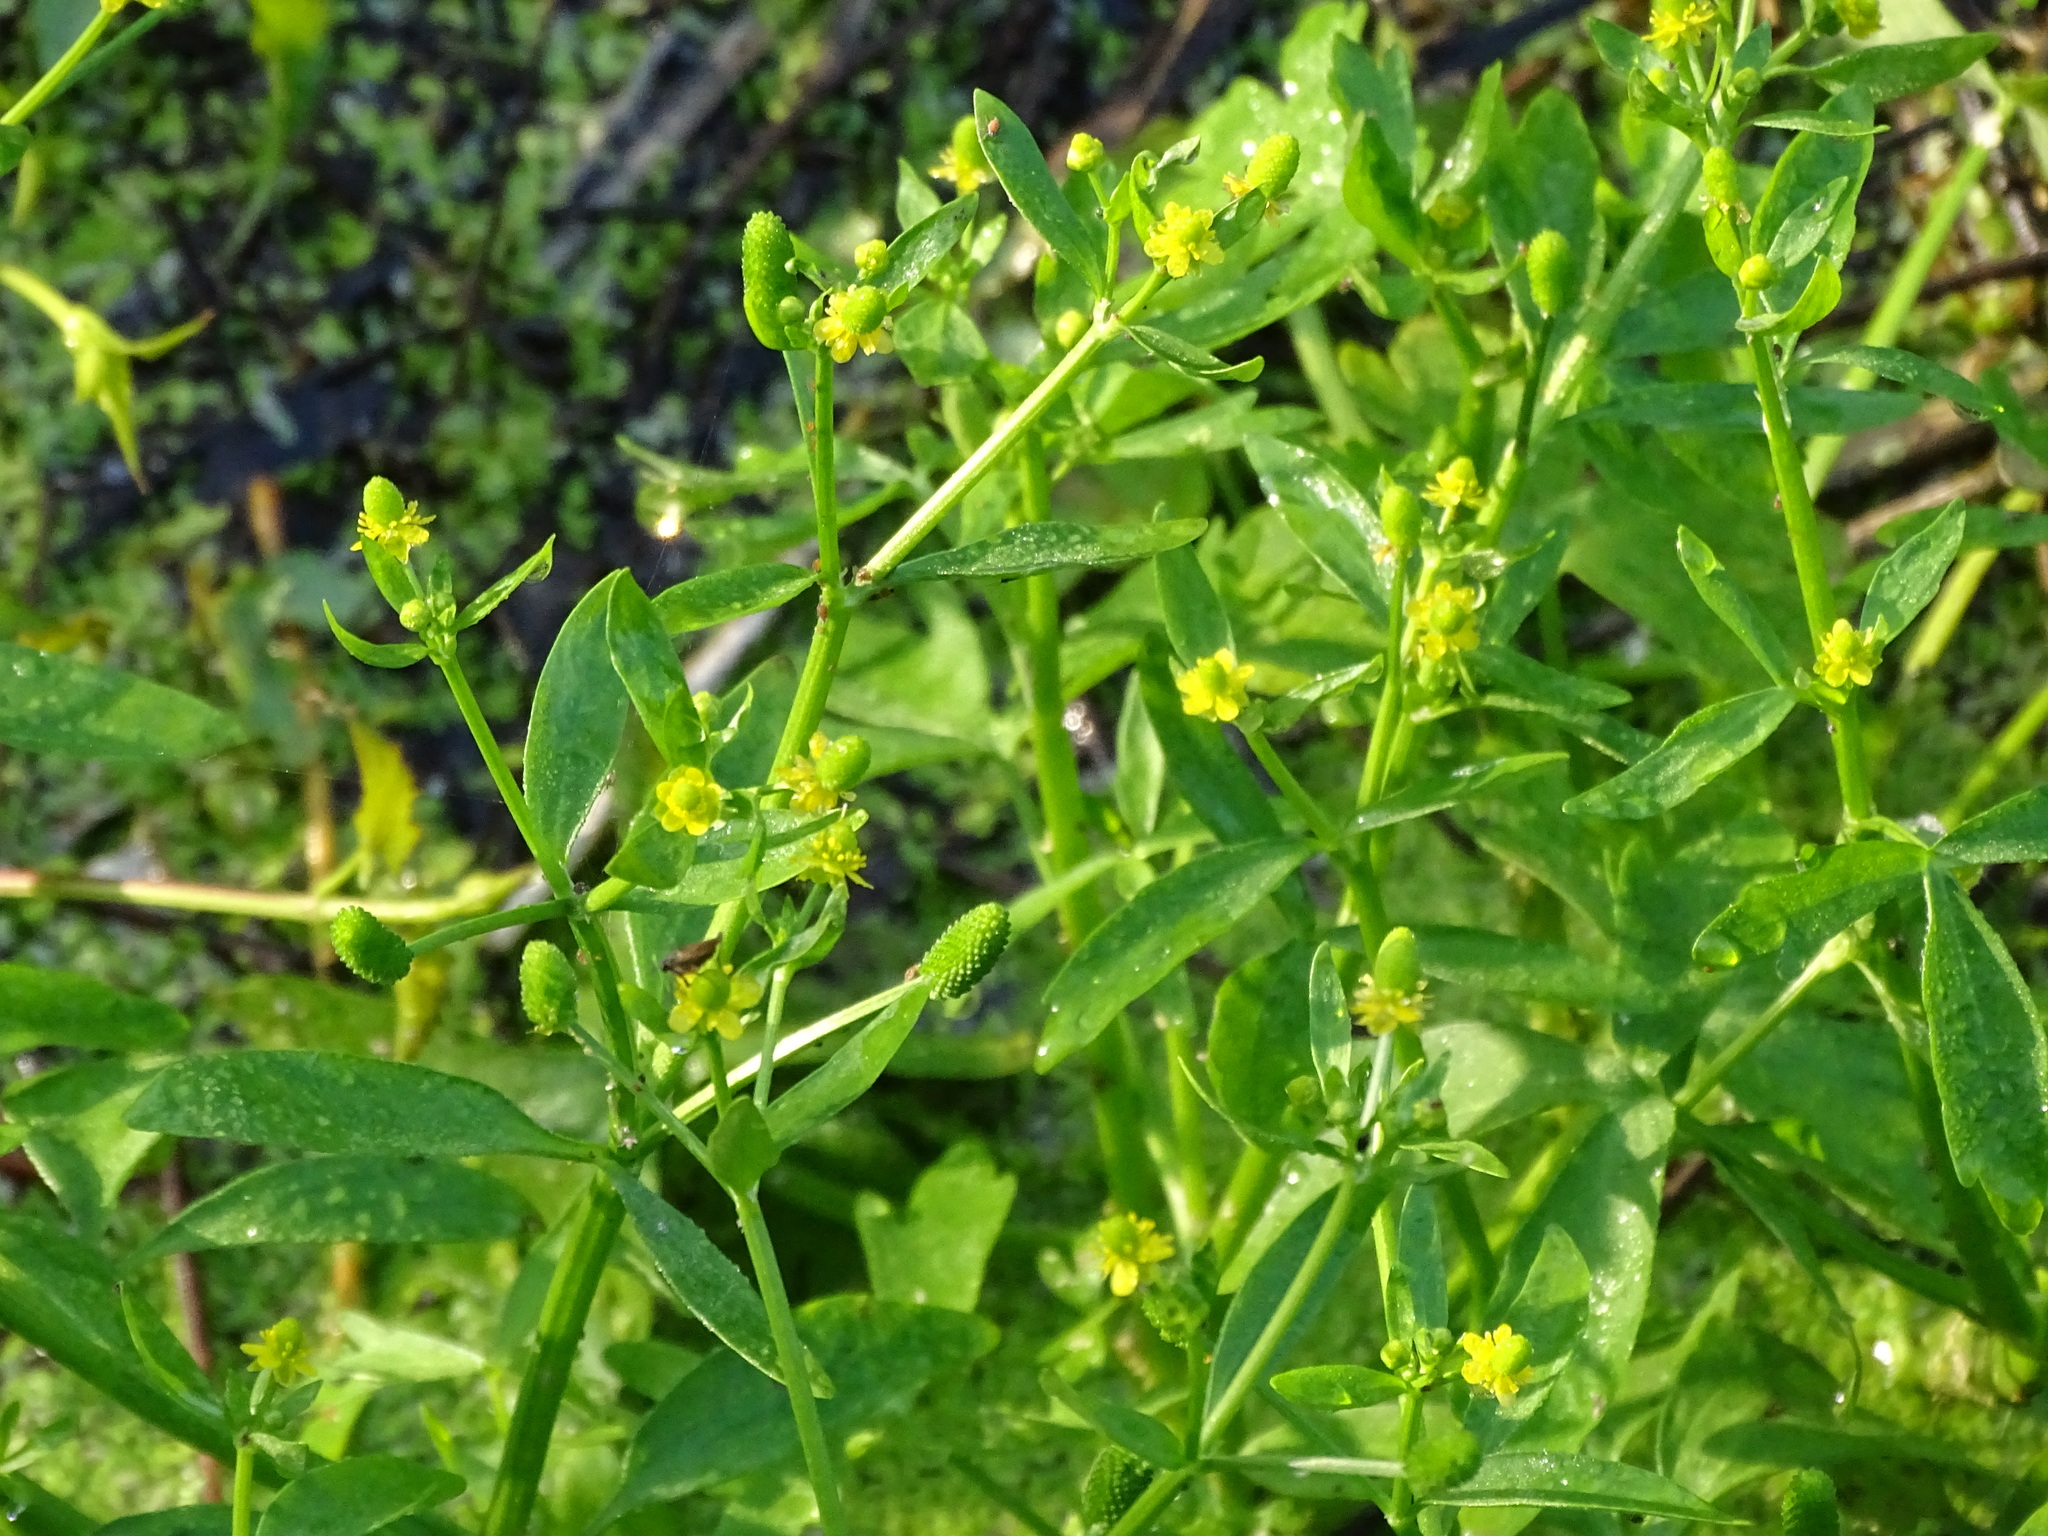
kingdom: Plantae
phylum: Tracheophyta
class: Magnoliopsida
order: Ranunculales
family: Ranunculaceae
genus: Ranunculus
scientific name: Ranunculus sceleratus
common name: Celery-leaved buttercup
